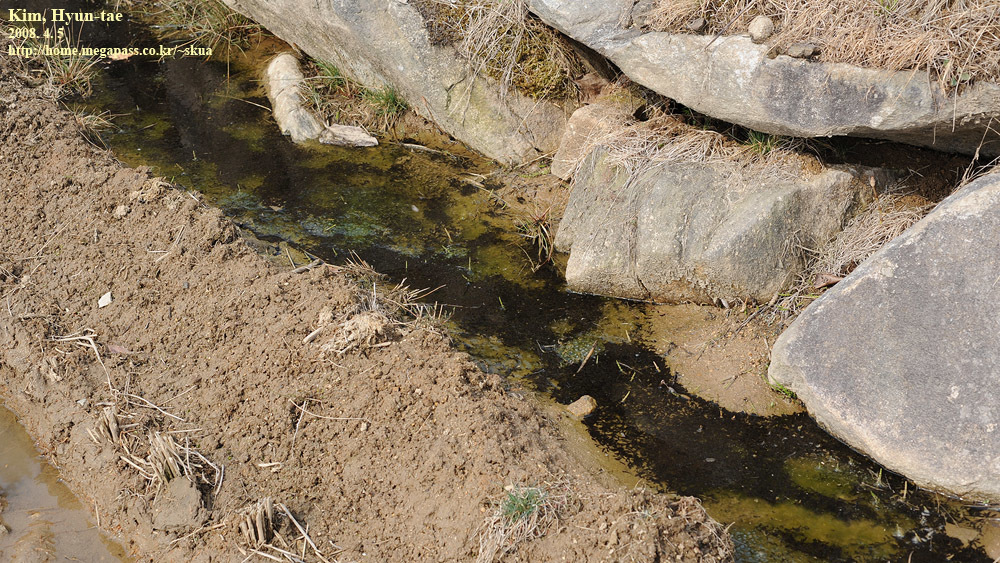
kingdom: Animalia
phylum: Chordata
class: Amphibia
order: Anura
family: Ranidae
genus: Rana
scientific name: Rana uenoi
